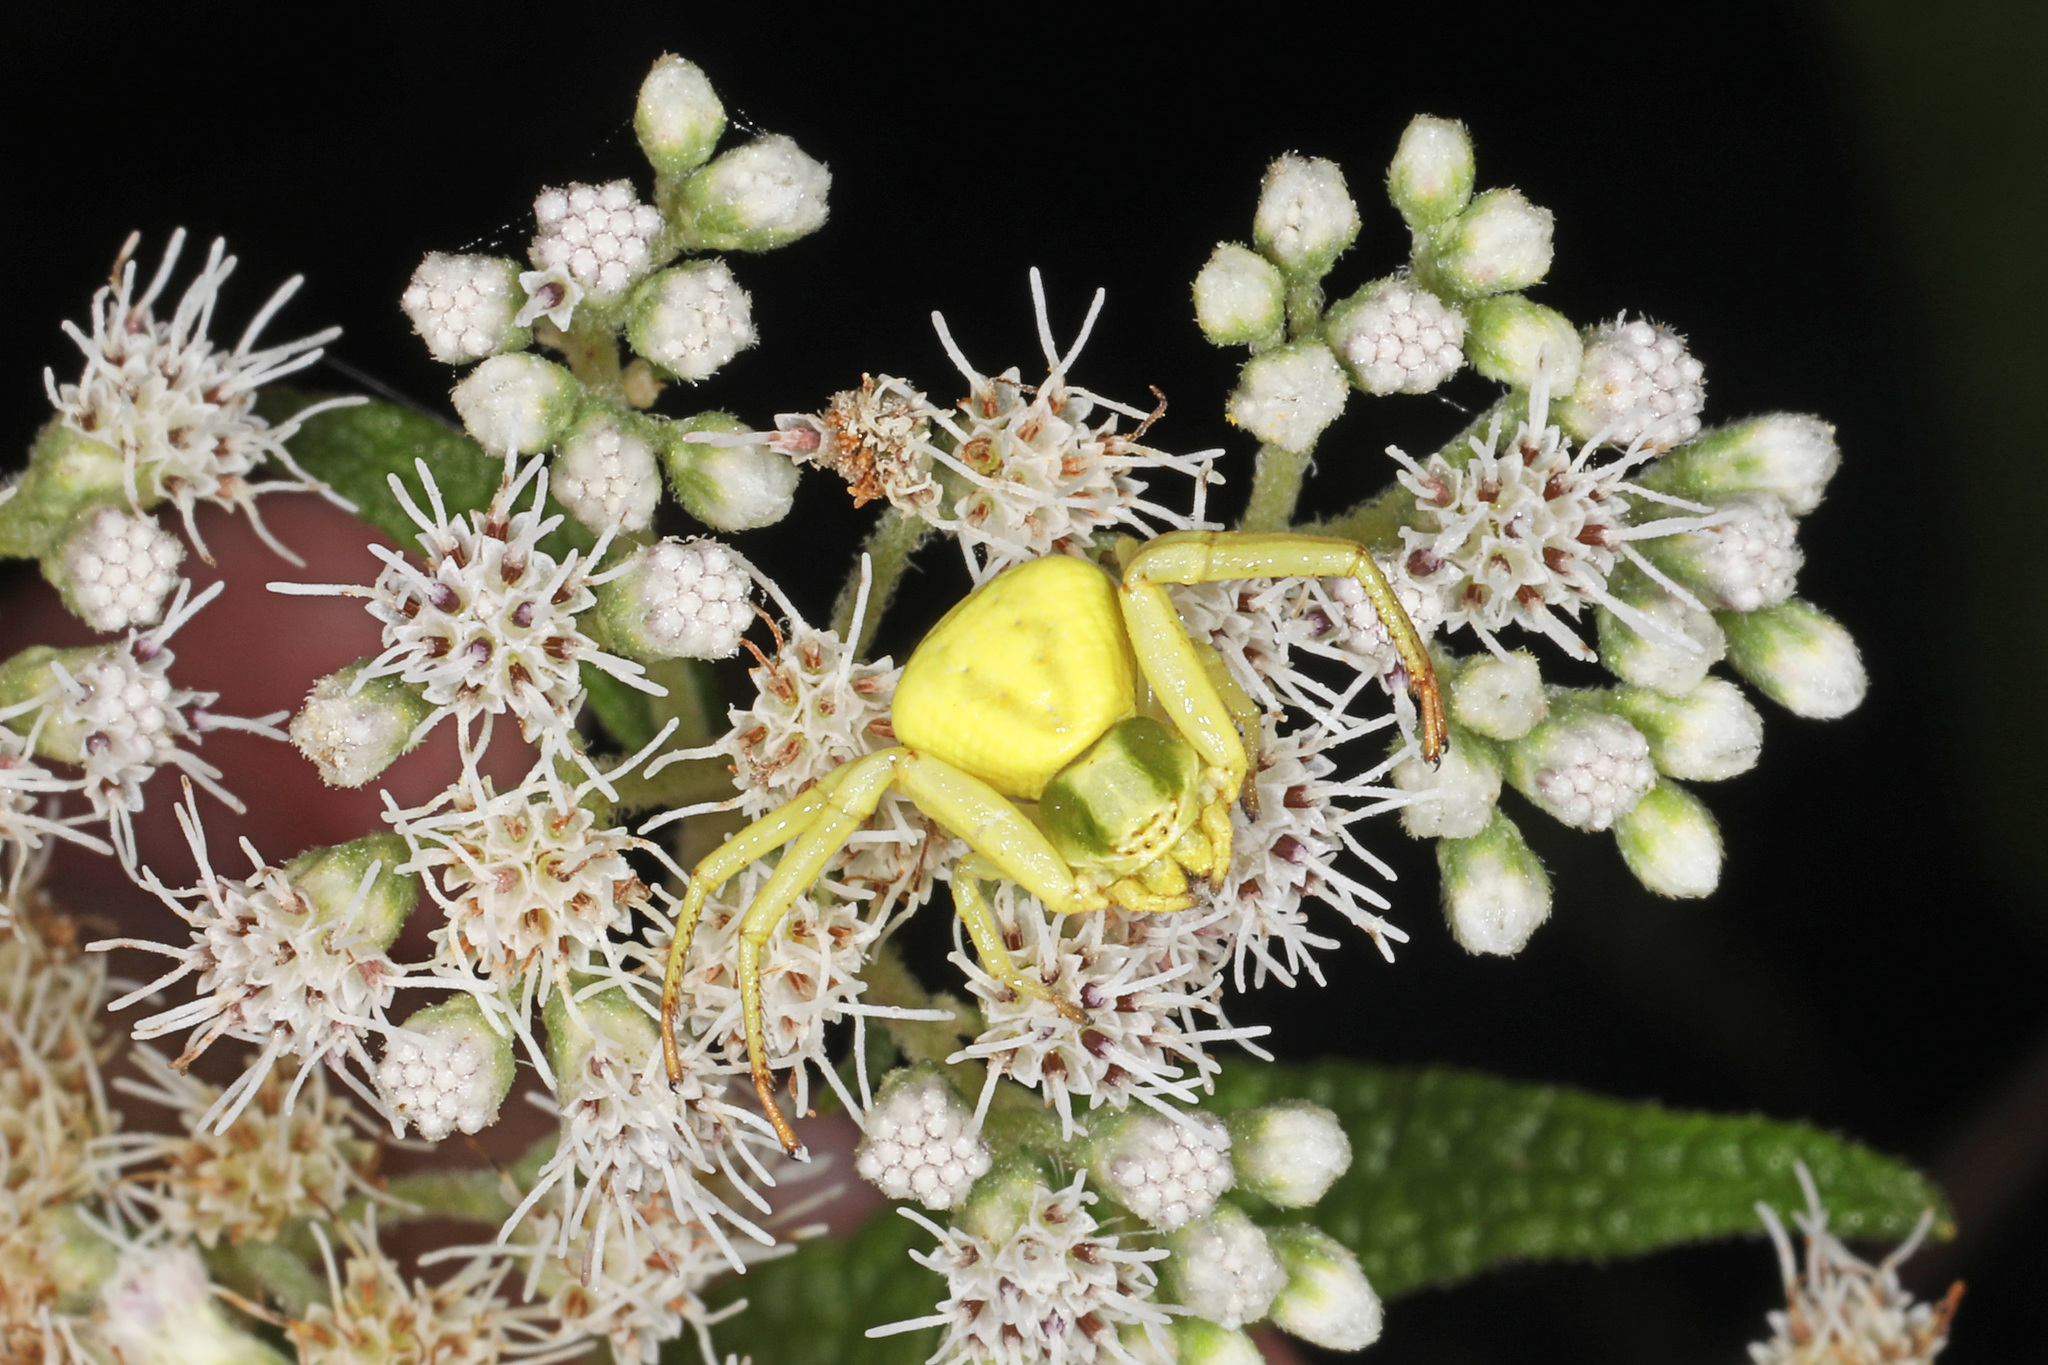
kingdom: Animalia
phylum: Arthropoda
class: Arachnida
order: Araneae
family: Thomisidae
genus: Misumenoides
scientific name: Misumenoides formosipes
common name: White-banded crab spider
